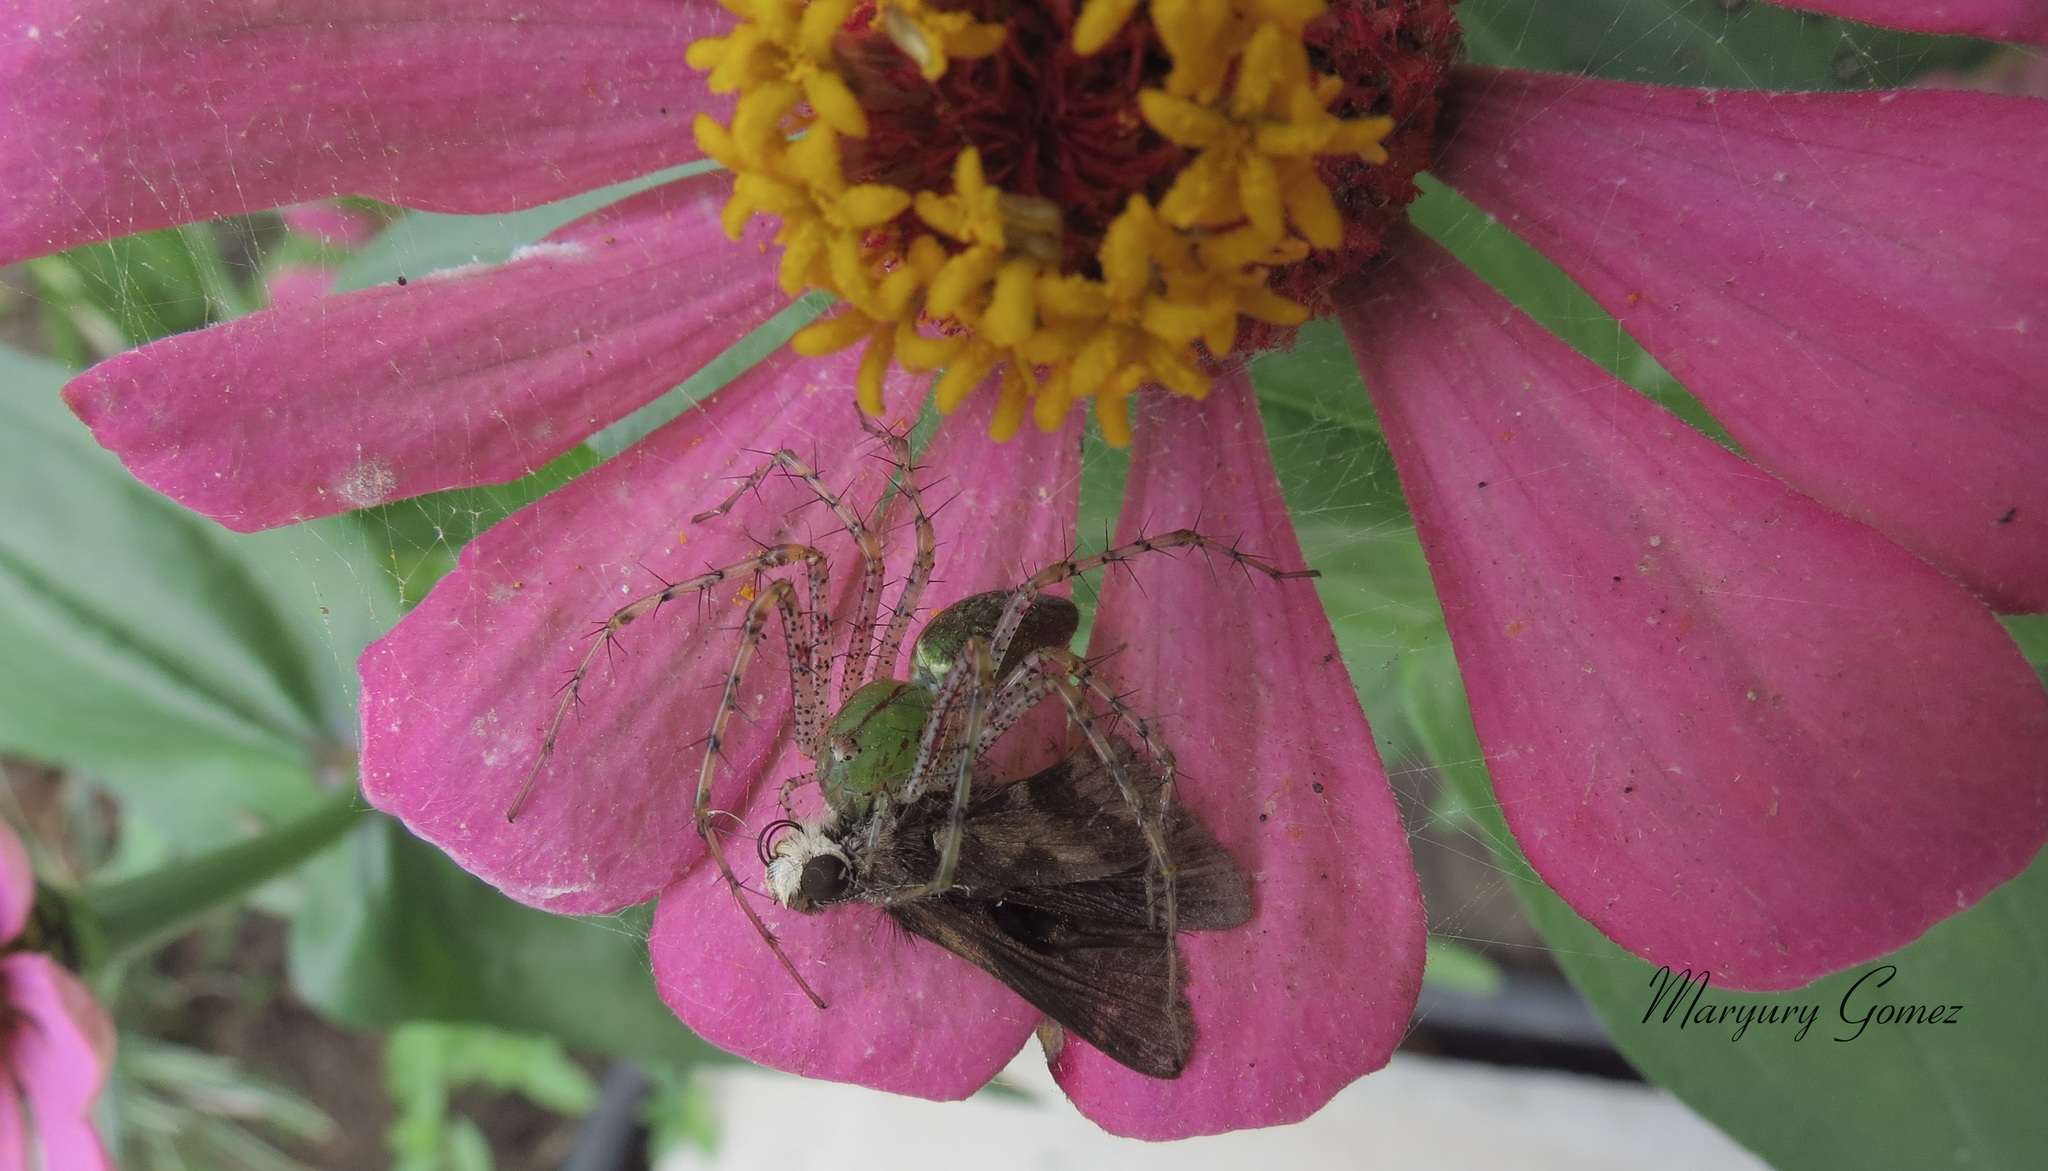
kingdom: Animalia
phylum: Arthropoda
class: Arachnida
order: Araneae
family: Oxyopidae
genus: Peucetia
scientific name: Peucetia viridans
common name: Lynx spiders
